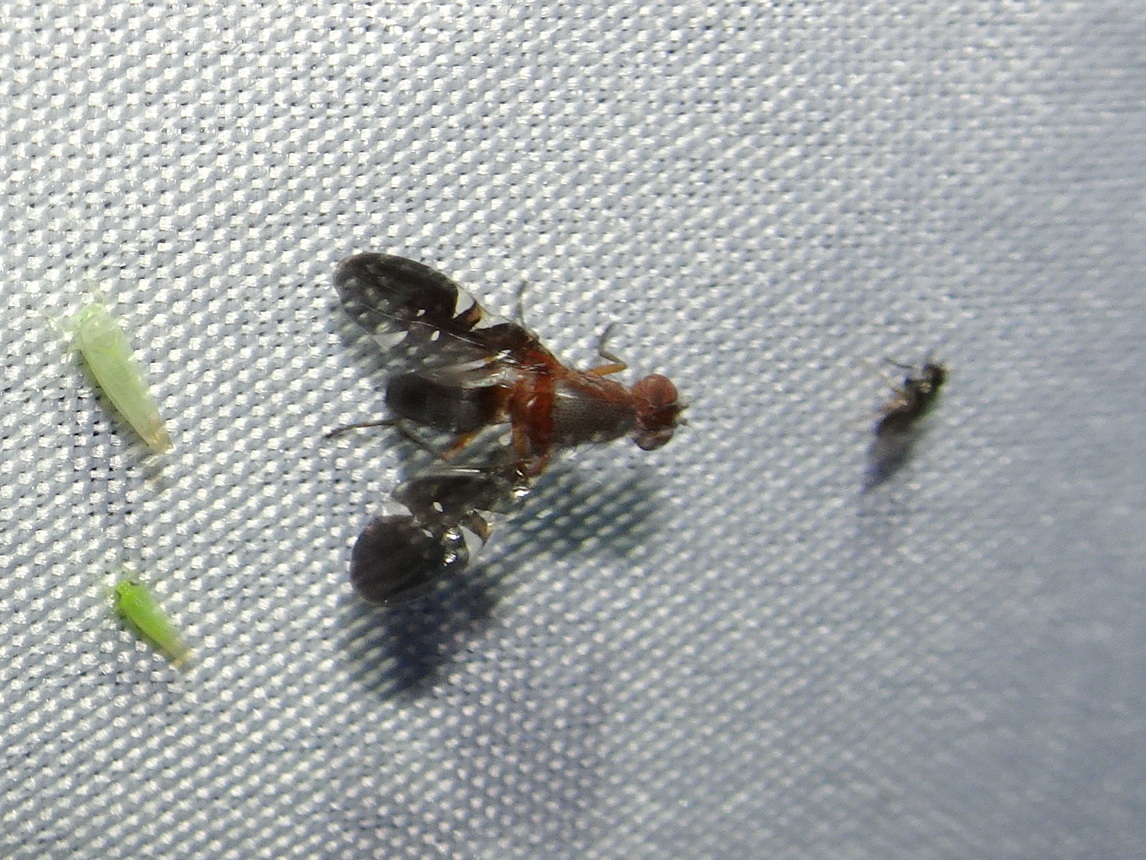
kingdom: Animalia
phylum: Arthropoda
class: Insecta
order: Diptera
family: Ulidiidae
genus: Delphinia
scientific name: Delphinia picta
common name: Common picture-winged fly
